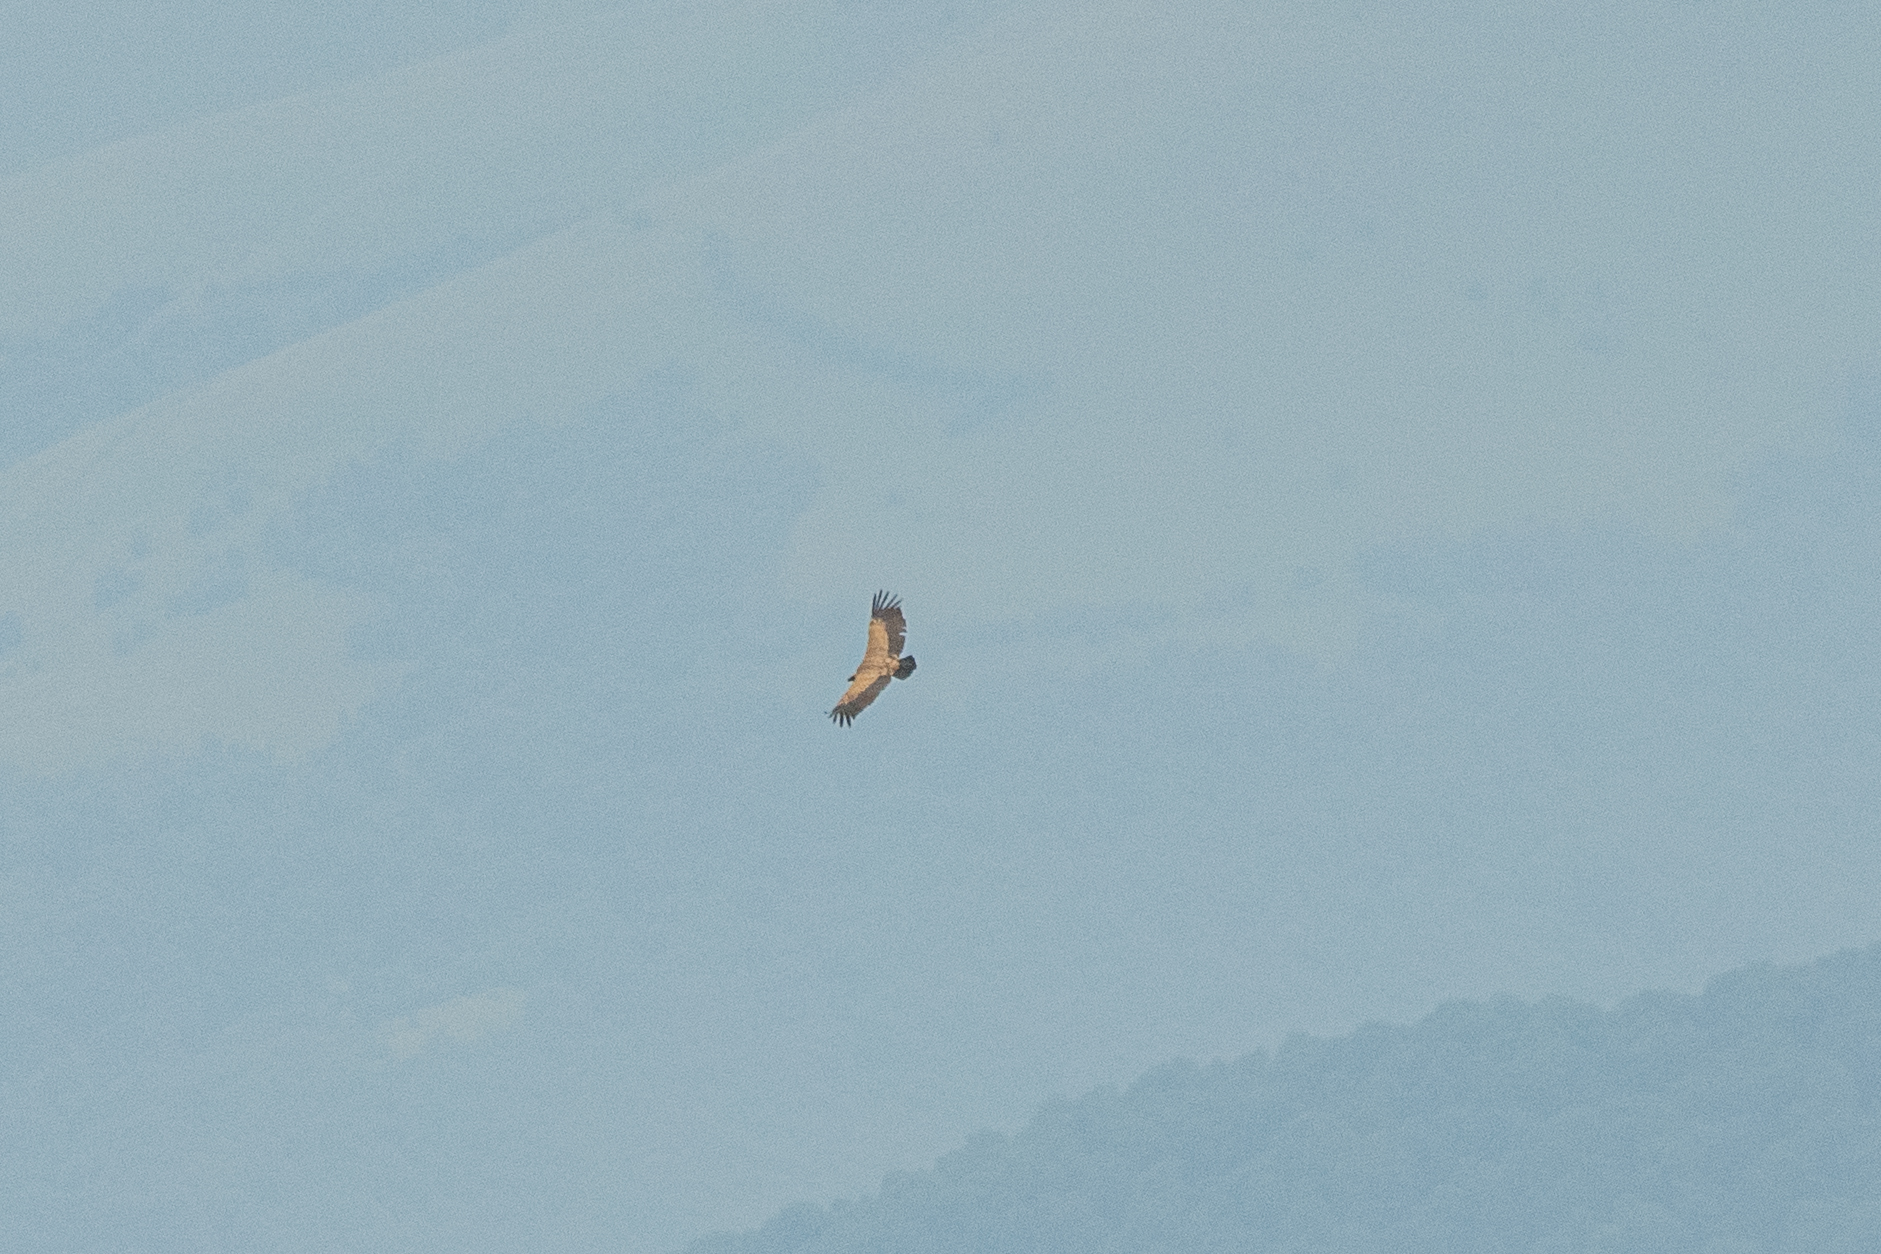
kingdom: Animalia
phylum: Chordata
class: Aves
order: Accipitriformes
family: Accipitridae
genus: Gyps
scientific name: Gyps fulvus
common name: Griffon vulture
